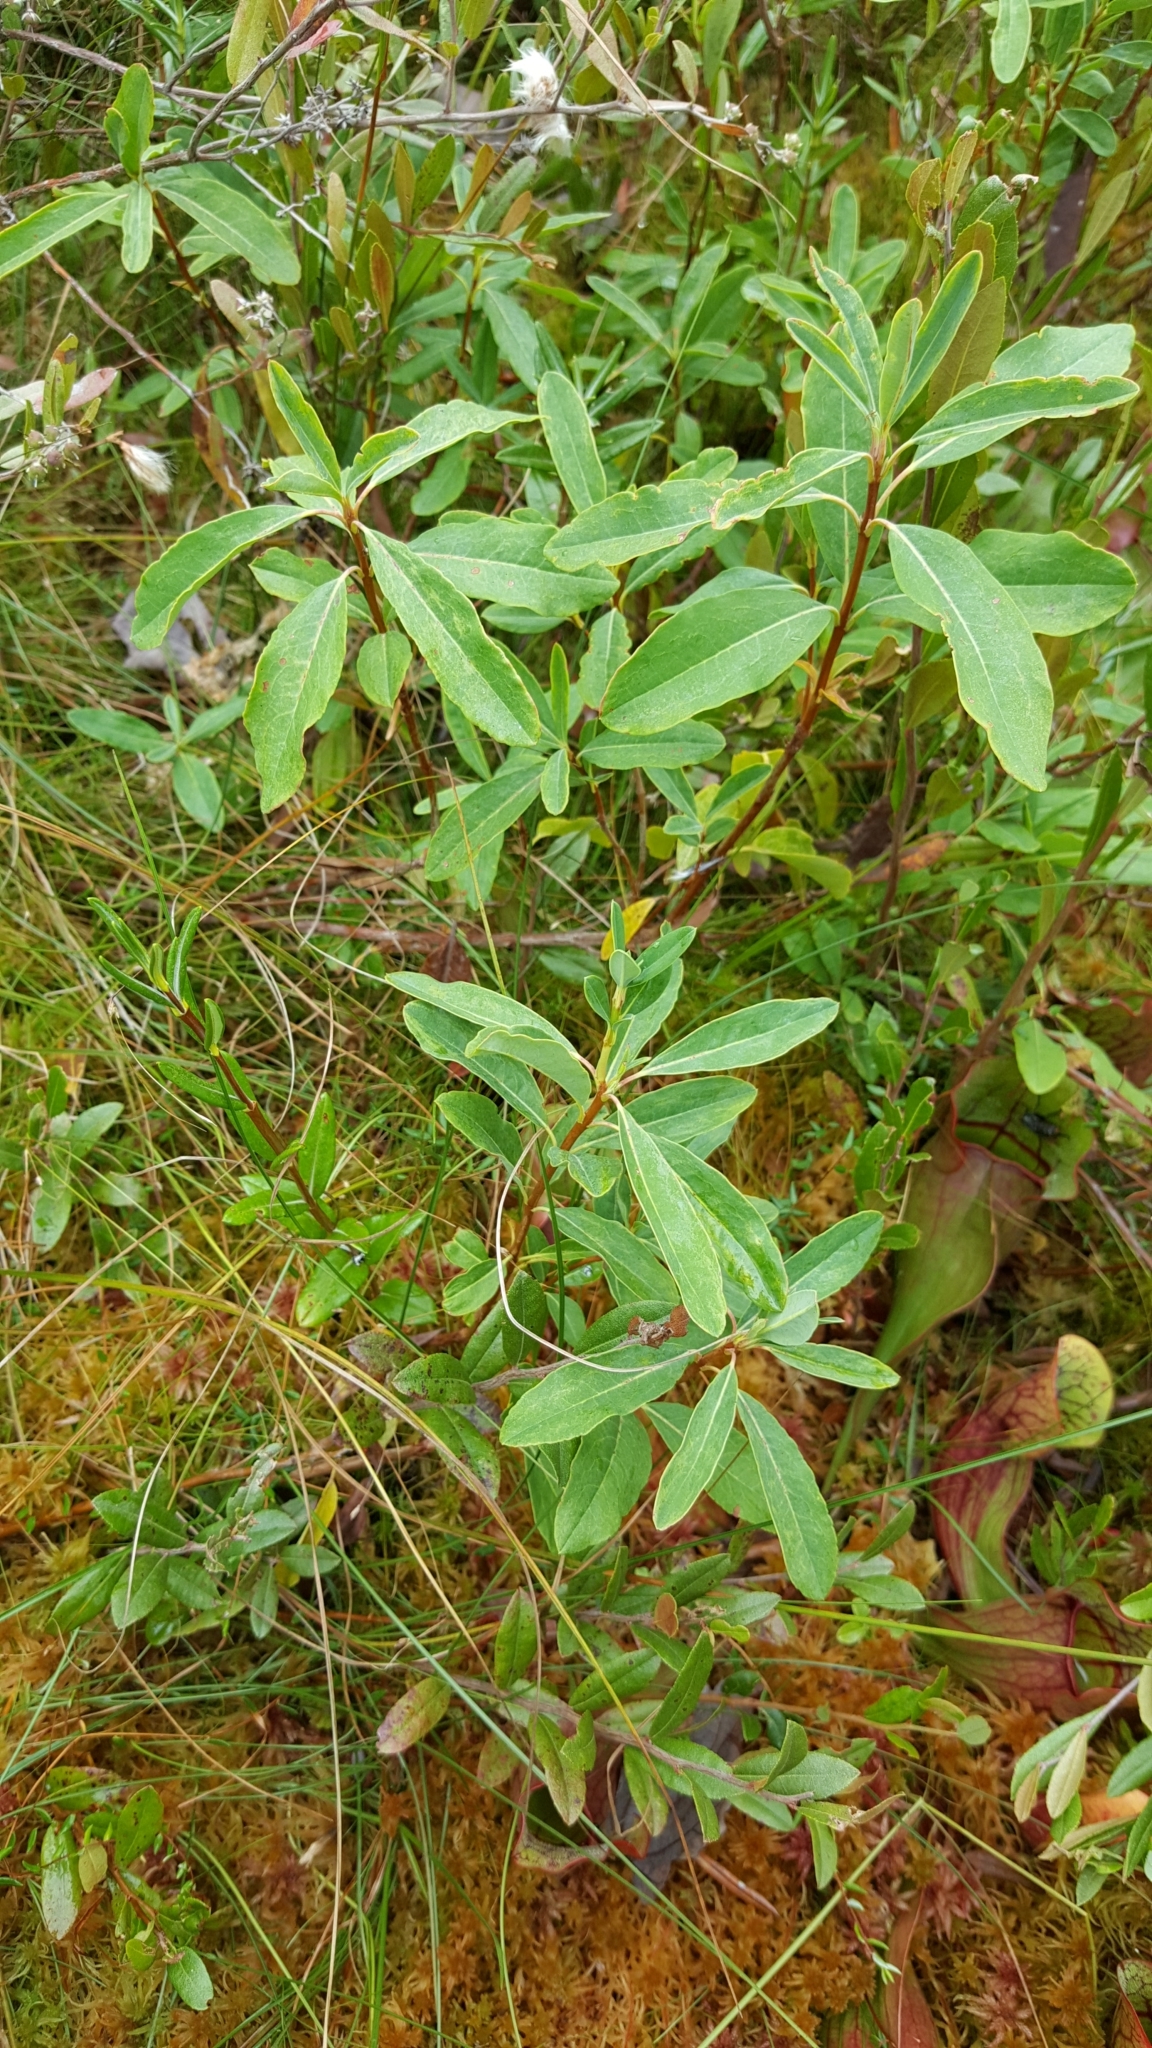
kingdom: Plantae
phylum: Tracheophyta
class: Magnoliopsida
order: Ericales
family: Ericaceae
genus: Kalmia
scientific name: Kalmia angustifolia
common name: Sheep-laurel
